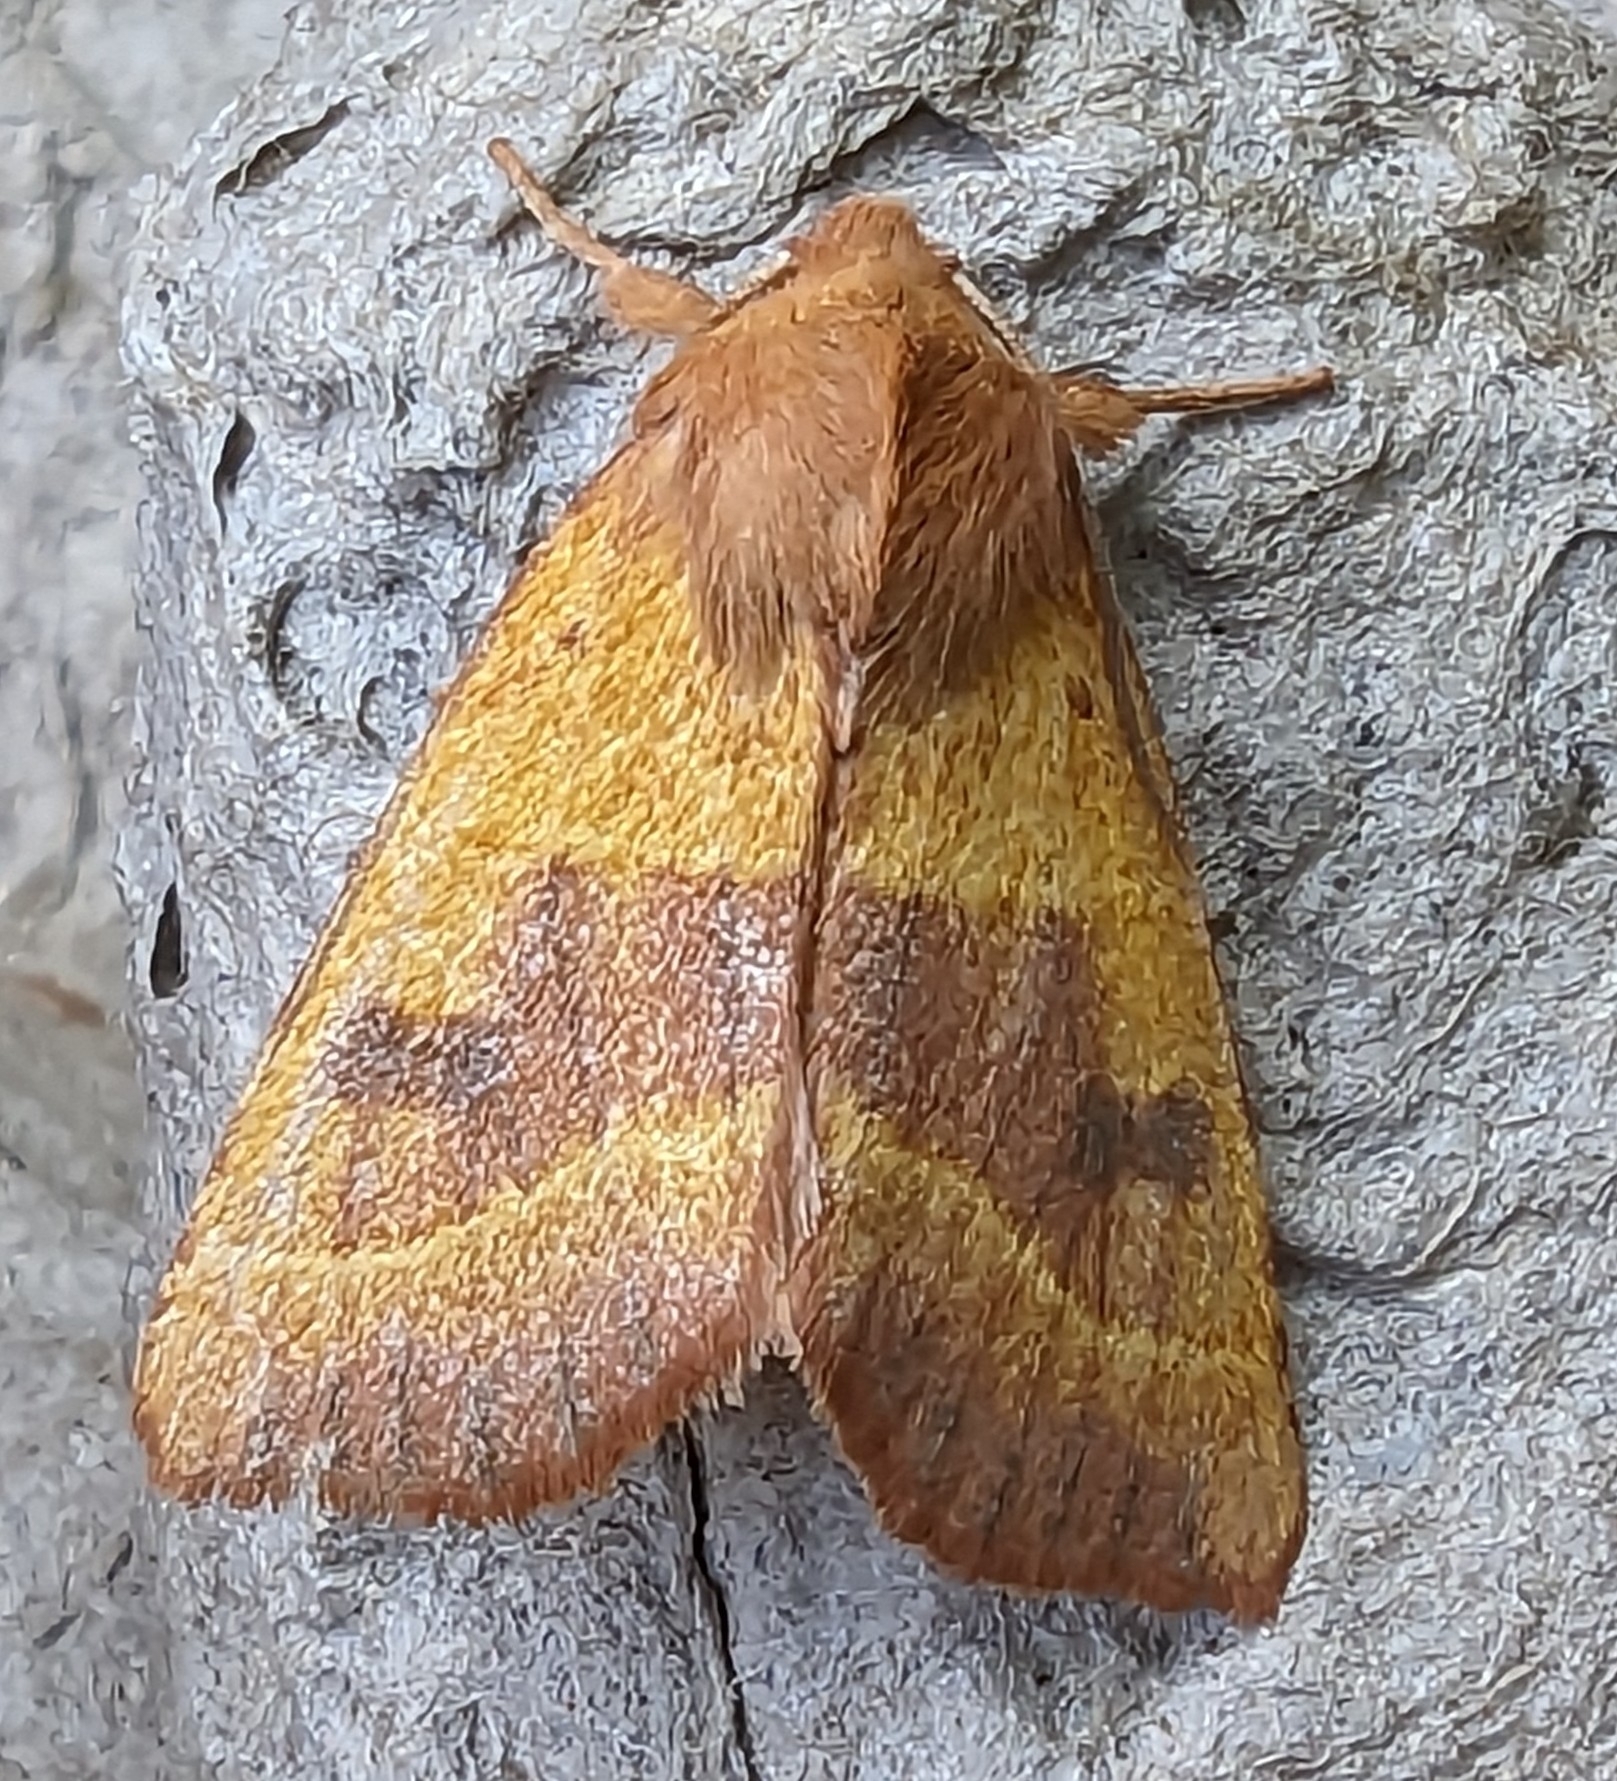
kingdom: Animalia
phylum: Arthropoda
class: Insecta
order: Lepidoptera
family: Noctuidae
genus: Atethmia
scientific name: Atethmia centrago
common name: Centre-barred sallow
